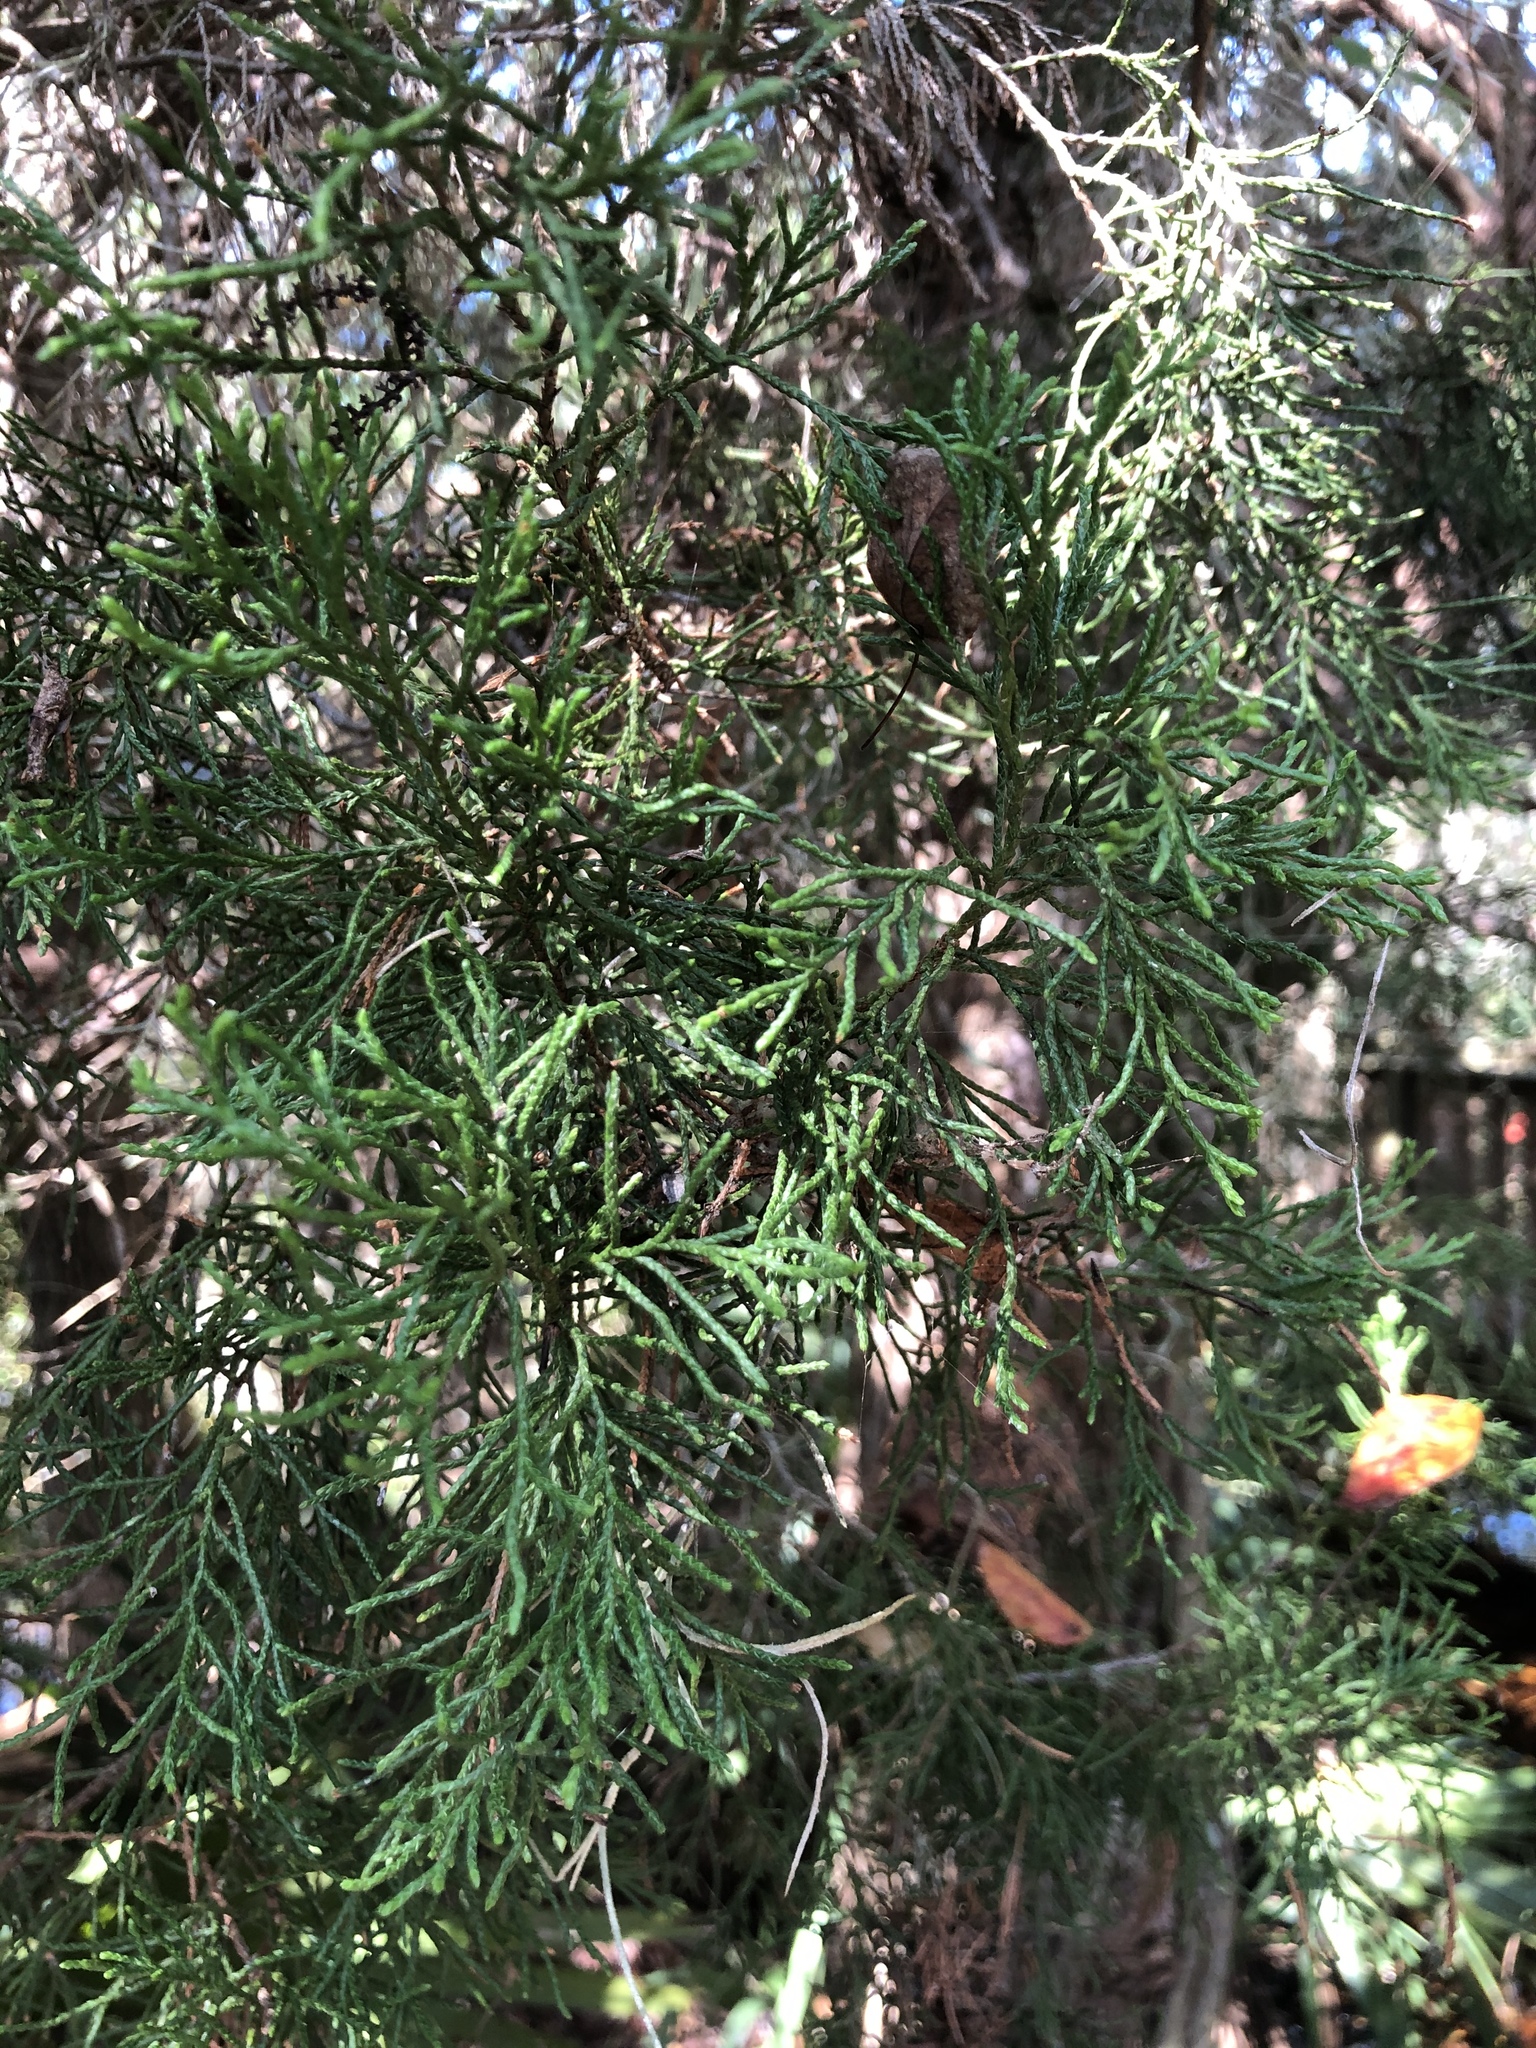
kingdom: Plantae
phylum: Tracheophyta
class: Pinopsida
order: Pinales
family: Cupressaceae
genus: Juniperus
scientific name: Juniperus virginiana
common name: Red juniper
